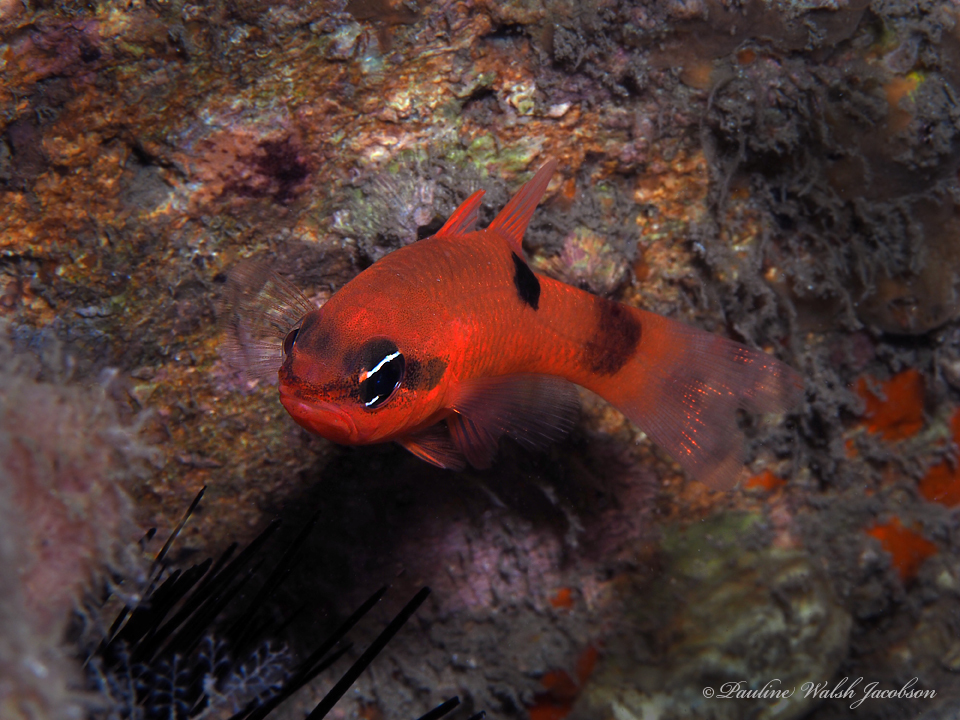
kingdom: Animalia
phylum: Chordata
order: Perciformes
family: Apogonidae
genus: Apogon
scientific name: Apogon maculatus
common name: Flamefish
